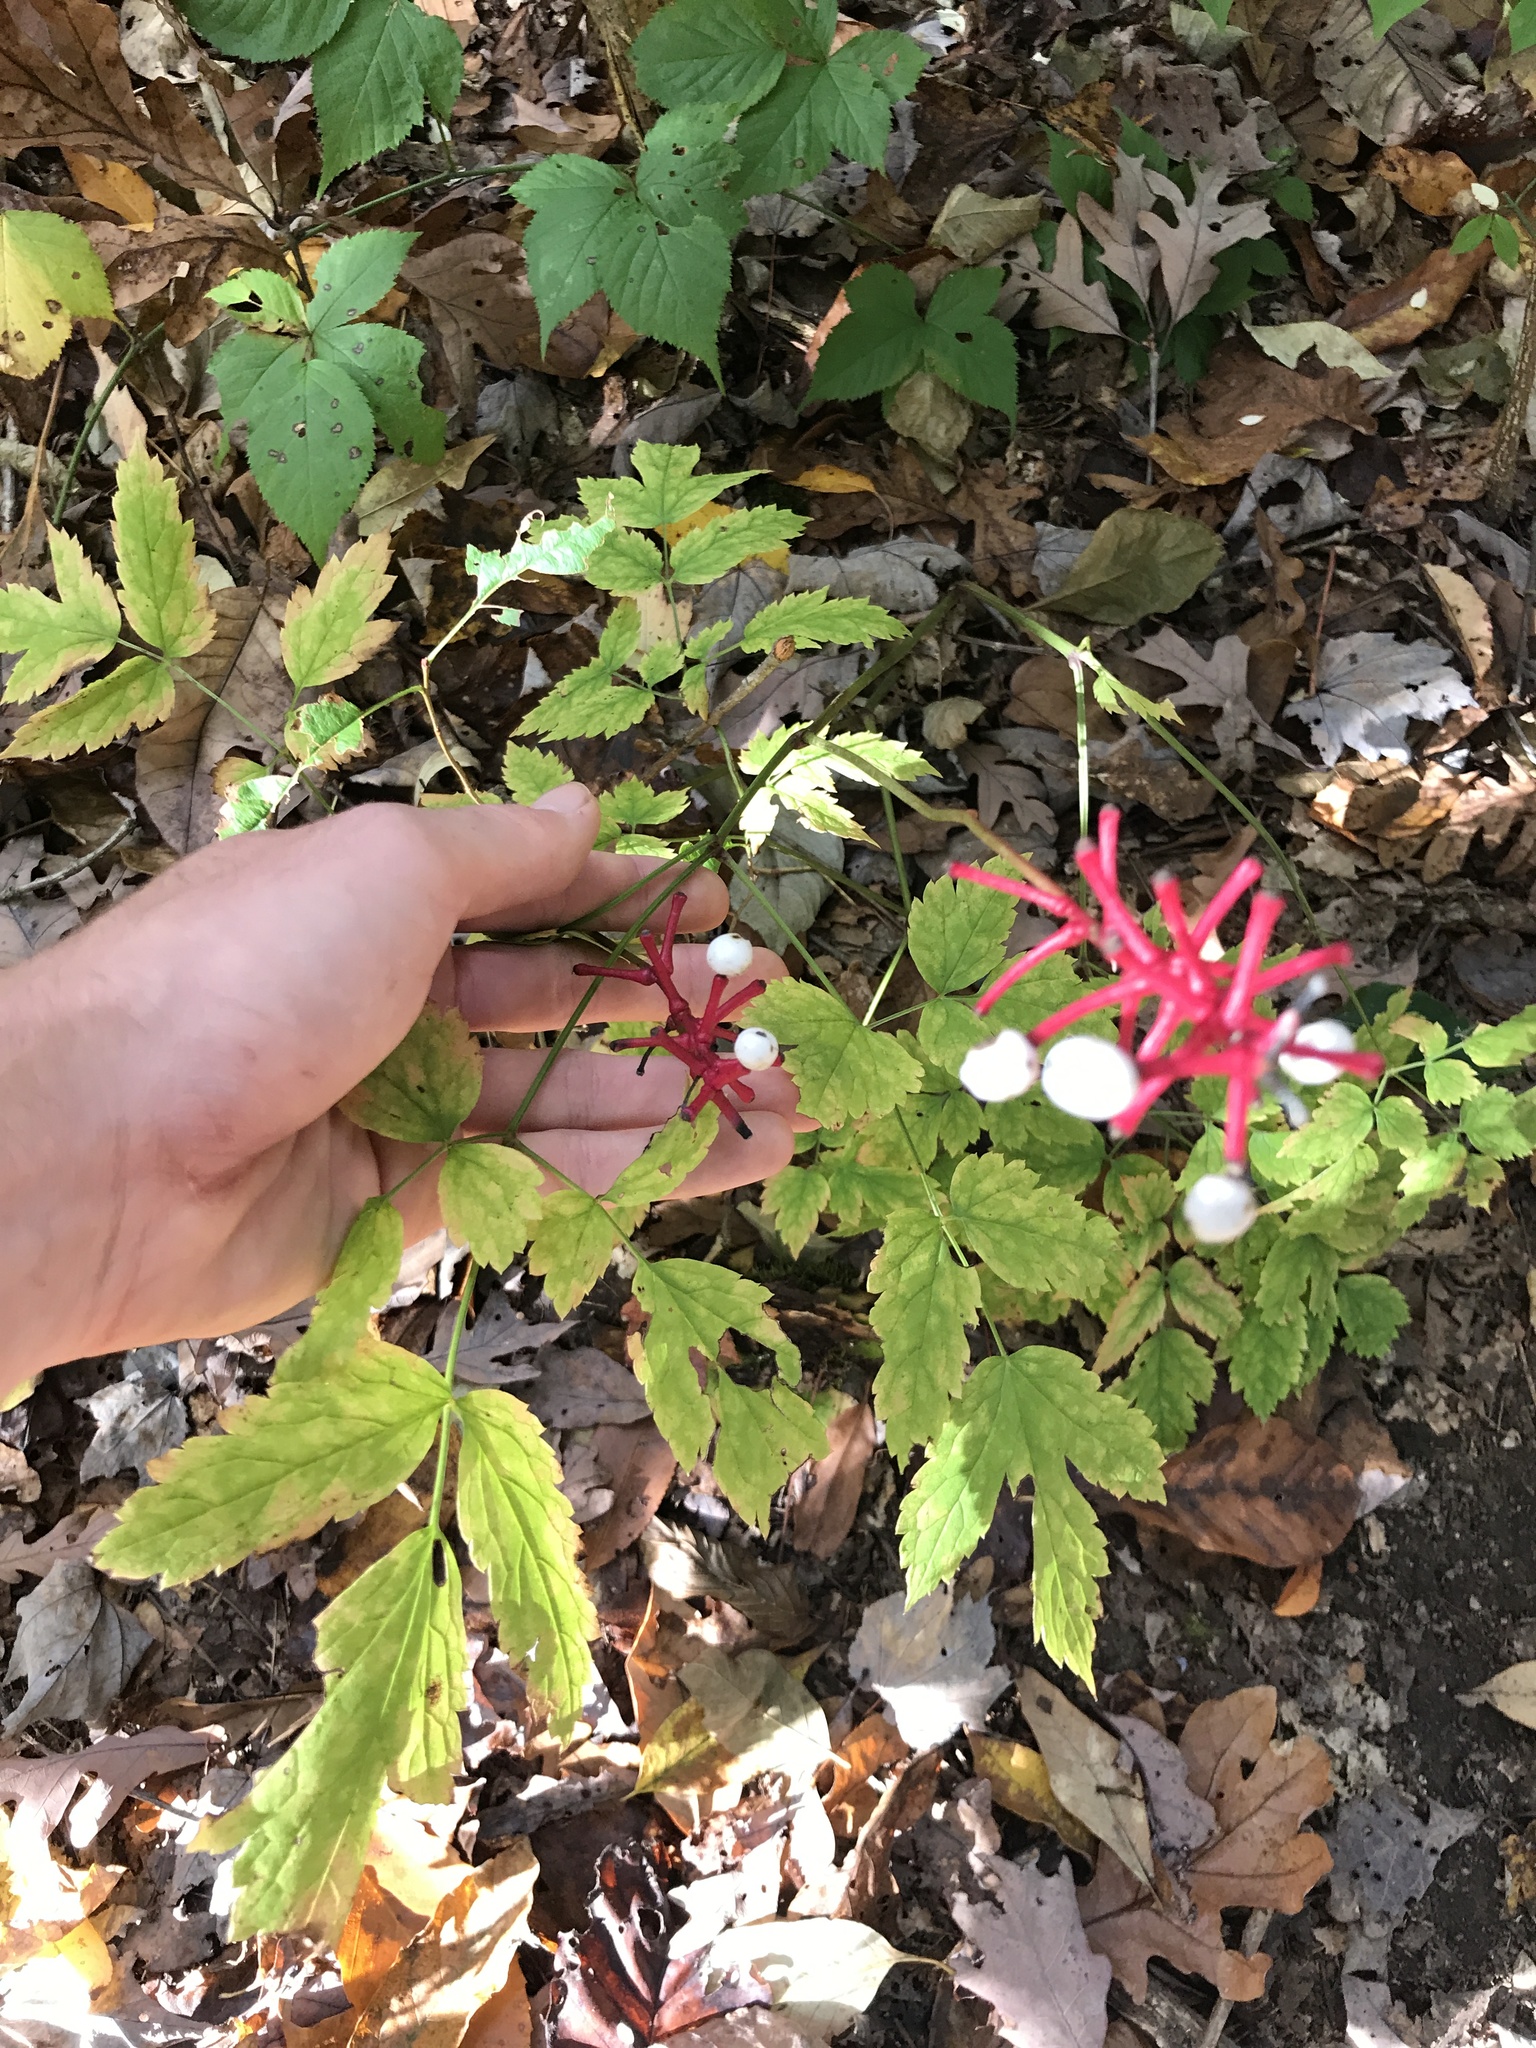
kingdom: Plantae
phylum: Tracheophyta
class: Magnoliopsida
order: Ranunculales
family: Ranunculaceae
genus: Actaea
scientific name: Actaea pachypoda
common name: Doll's-eyes
